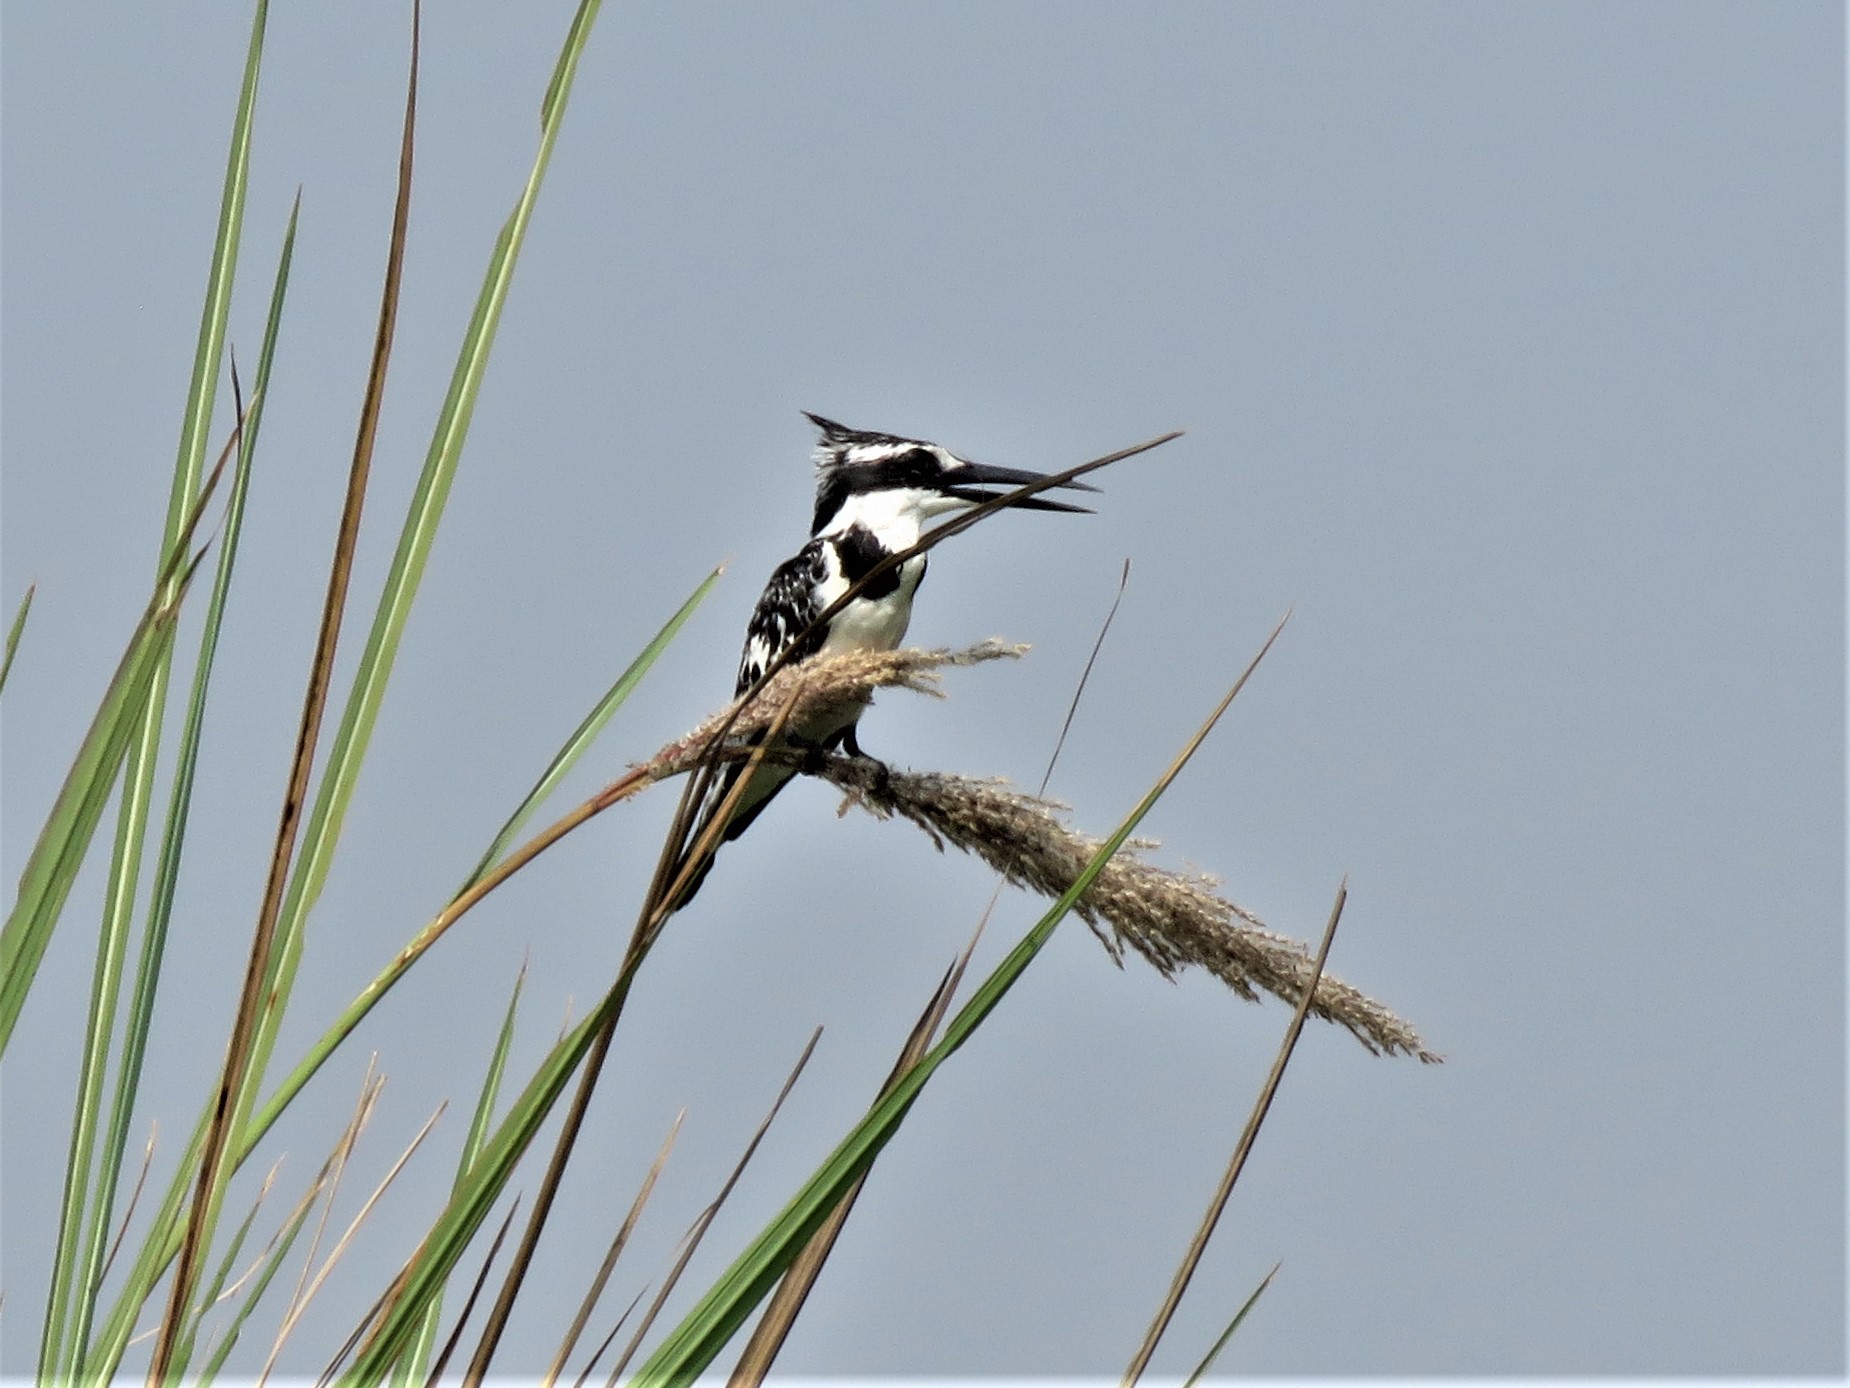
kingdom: Animalia
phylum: Chordata
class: Aves
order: Coraciiformes
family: Alcedinidae
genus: Ceryle
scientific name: Ceryle rudis
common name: Pied kingfisher
